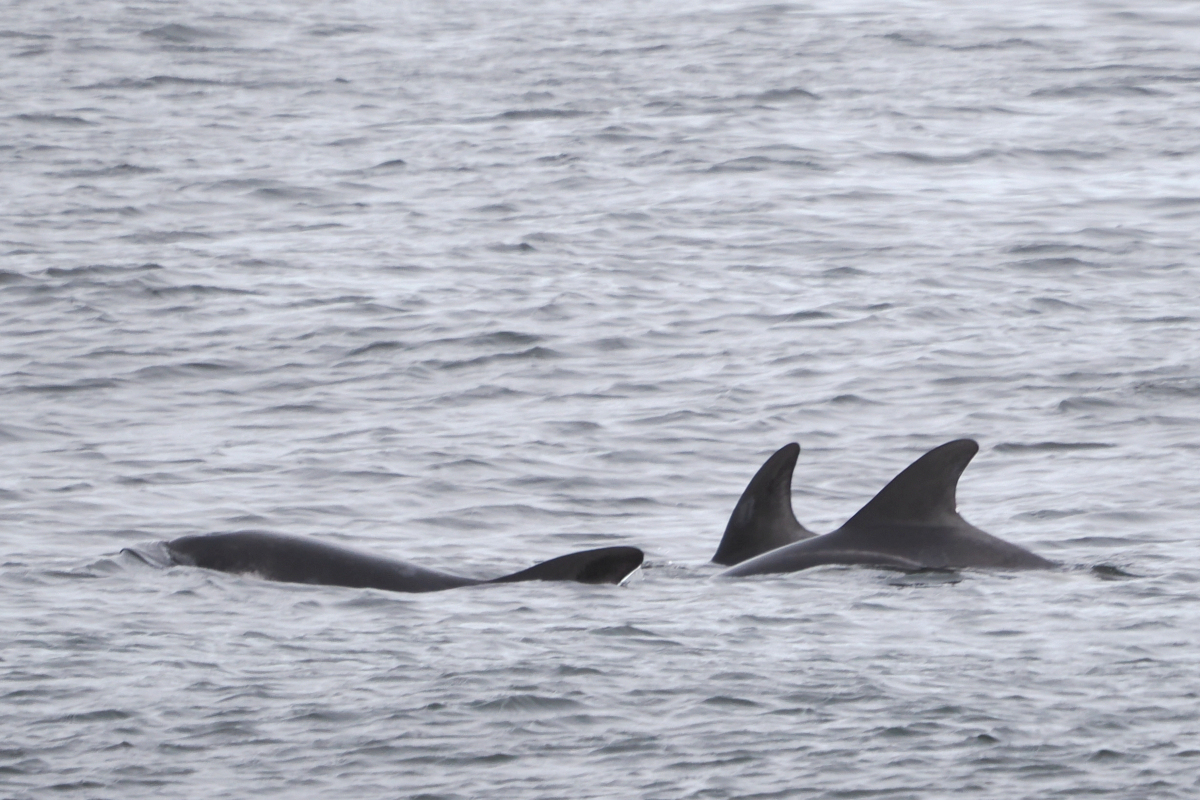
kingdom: Animalia
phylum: Chordata
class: Mammalia
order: Cetacea
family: Delphinidae
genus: Lagenorhynchus
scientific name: Lagenorhynchus australis
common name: Peale's dolphin
